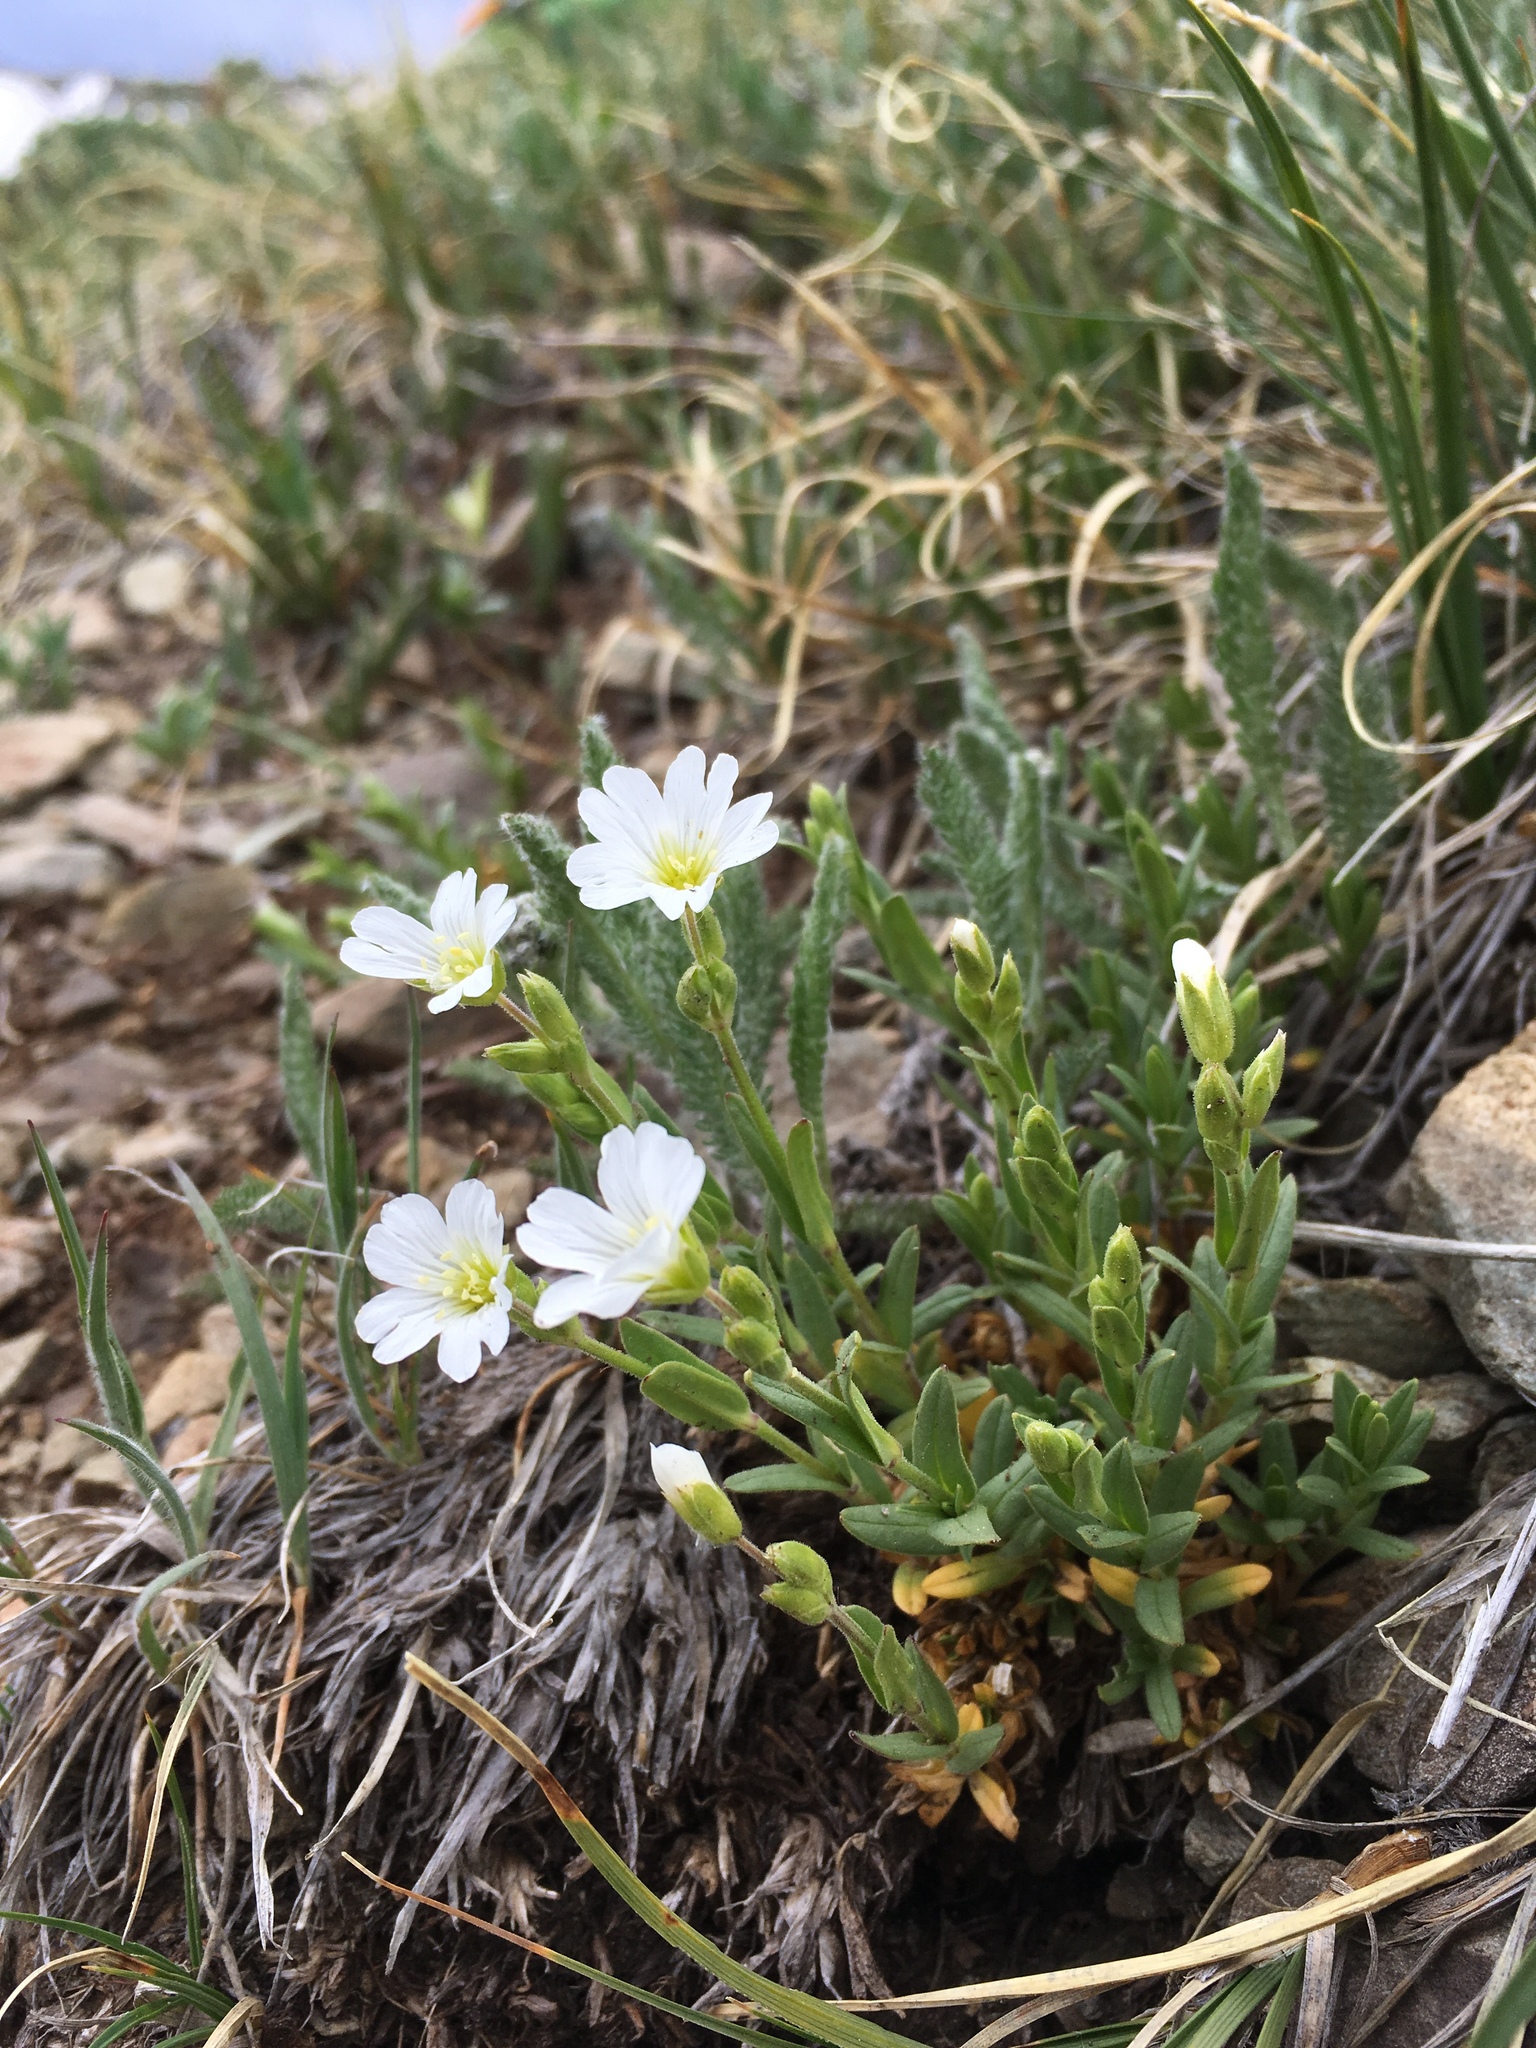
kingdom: Plantae
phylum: Tracheophyta
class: Magnoliopsida
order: Caryophyllales
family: Caryophyllaceae
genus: Cerastium
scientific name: Cerastium arvense
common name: Field mouse-ear
